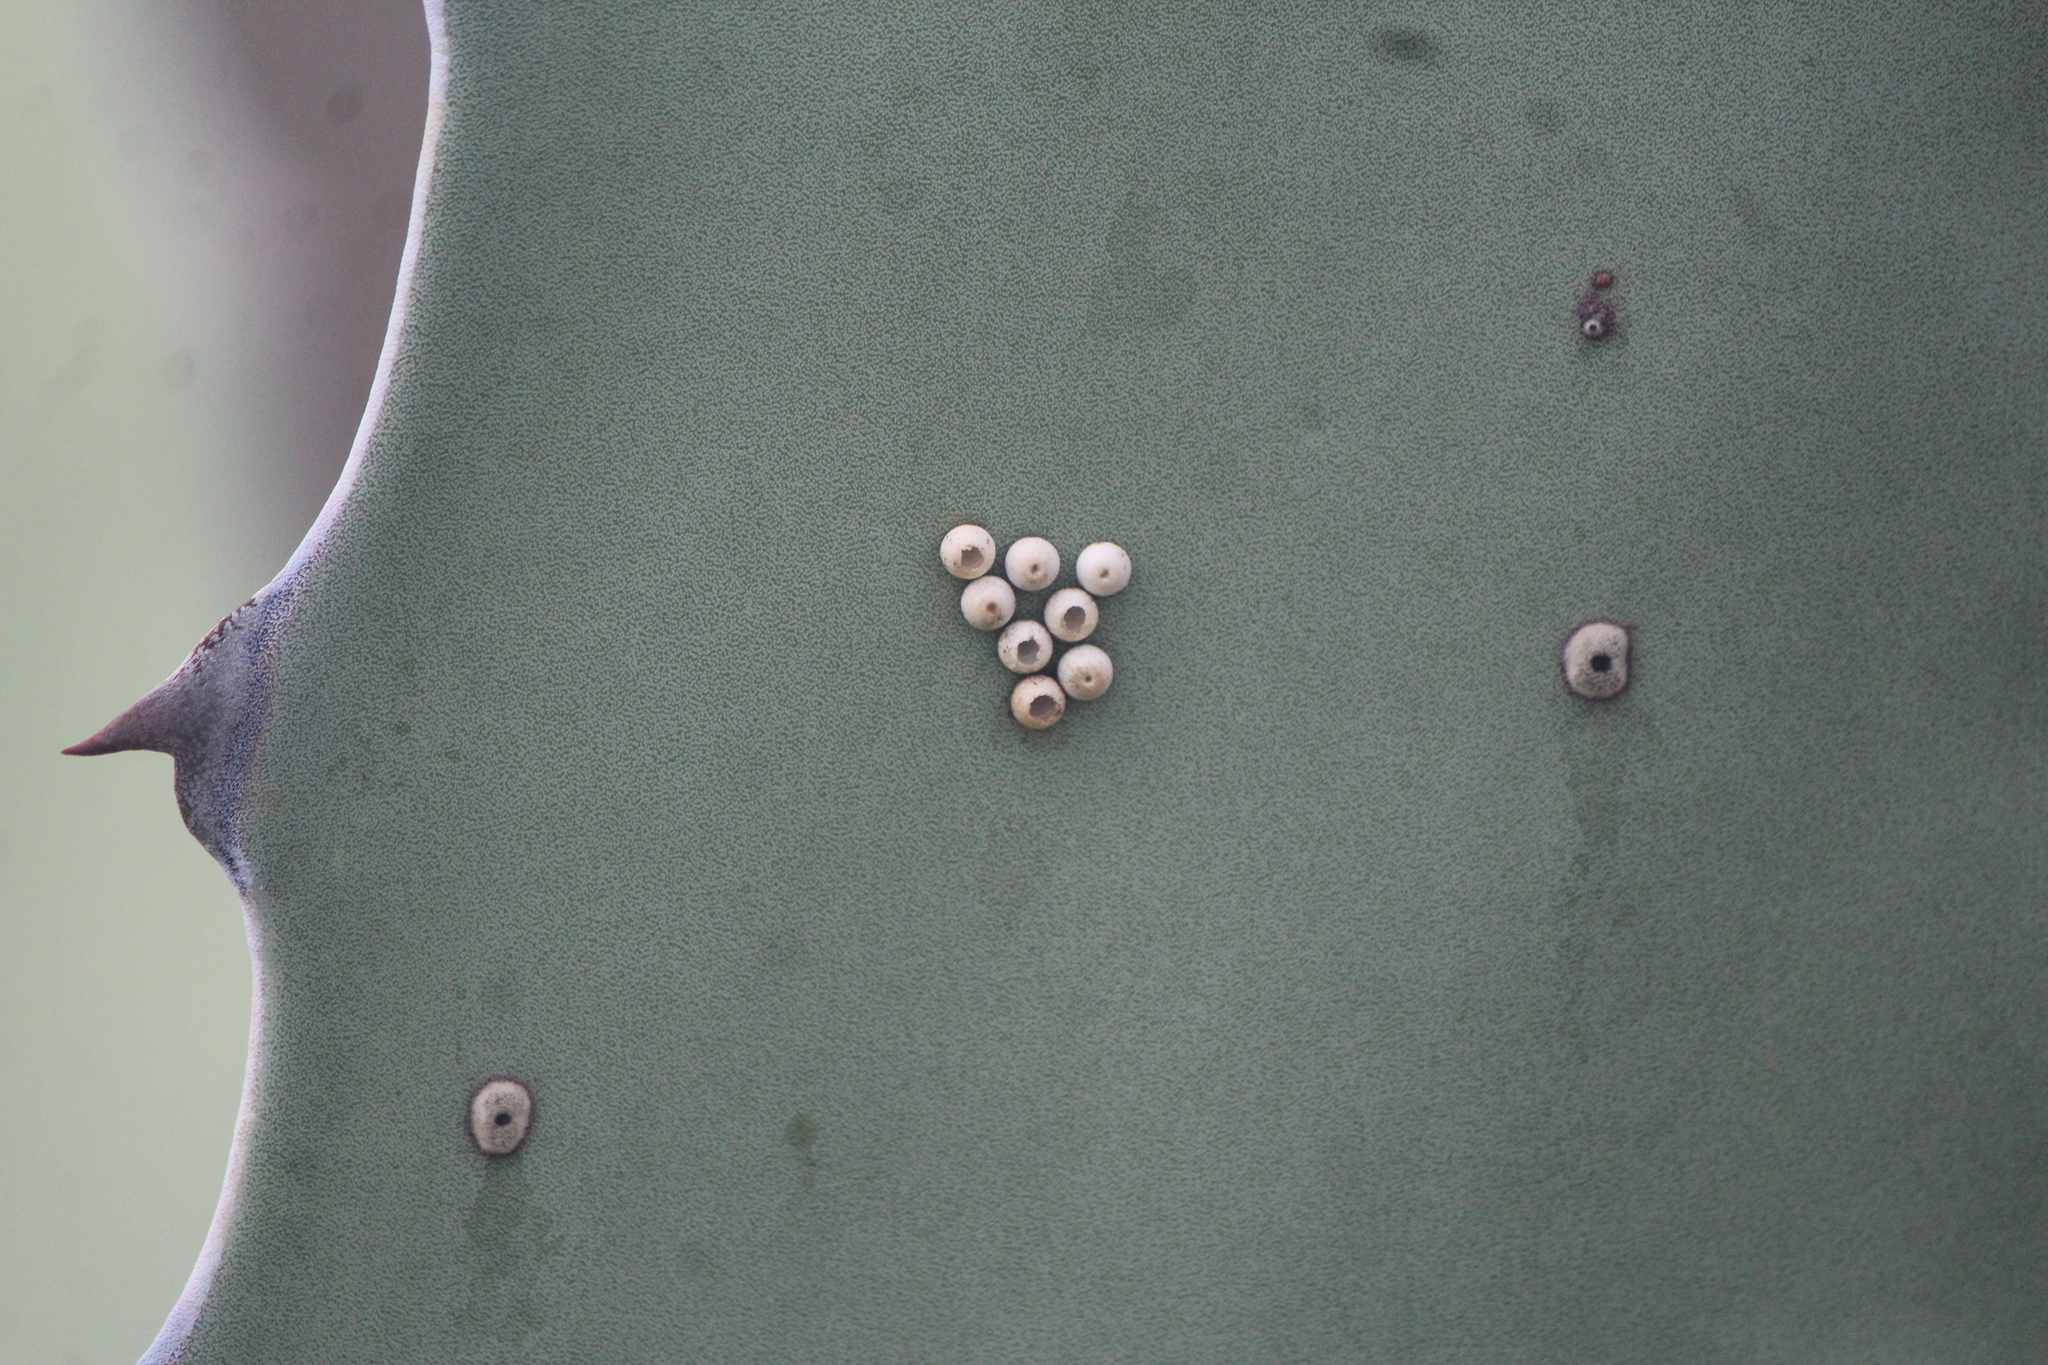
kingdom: Animalia
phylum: Arthropoda
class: Insecta
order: Lepidoptera
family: Hesperiidae
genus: Aegiale
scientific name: Aegiale hesperiaris
